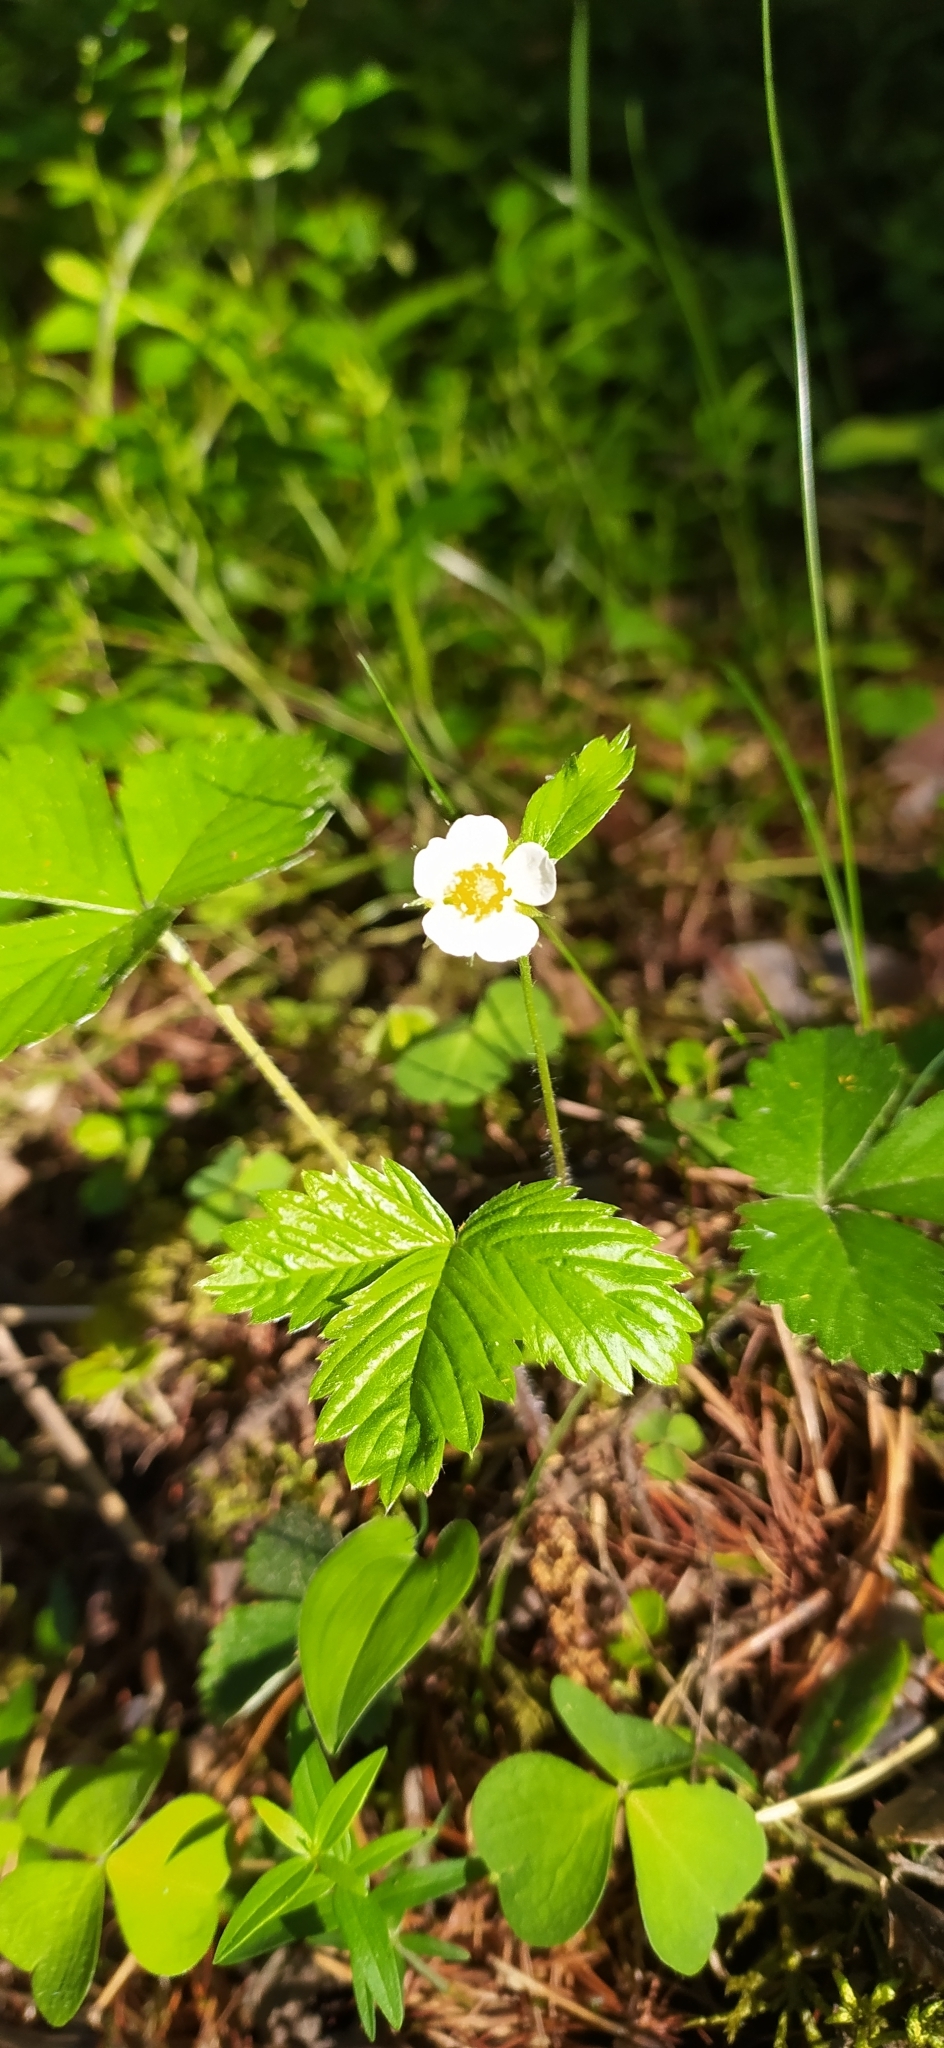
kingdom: Plantae
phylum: Tracheophyta
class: Magnoliopsida
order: Rosales
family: Rosaceae
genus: Fragaria
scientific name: Fragaria vesca
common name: Wild strawberry
